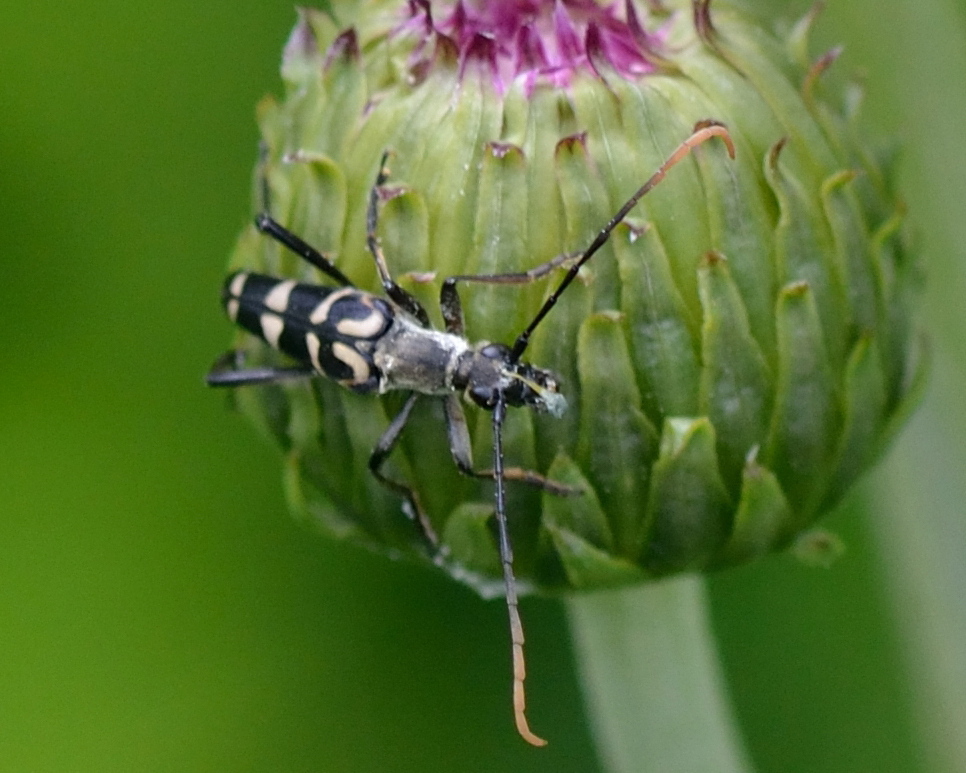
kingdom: Animalia
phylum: Arthropoda
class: Insecta
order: Coleoptera
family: Cerambycidae
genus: Leptura
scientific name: Leptura annularis
